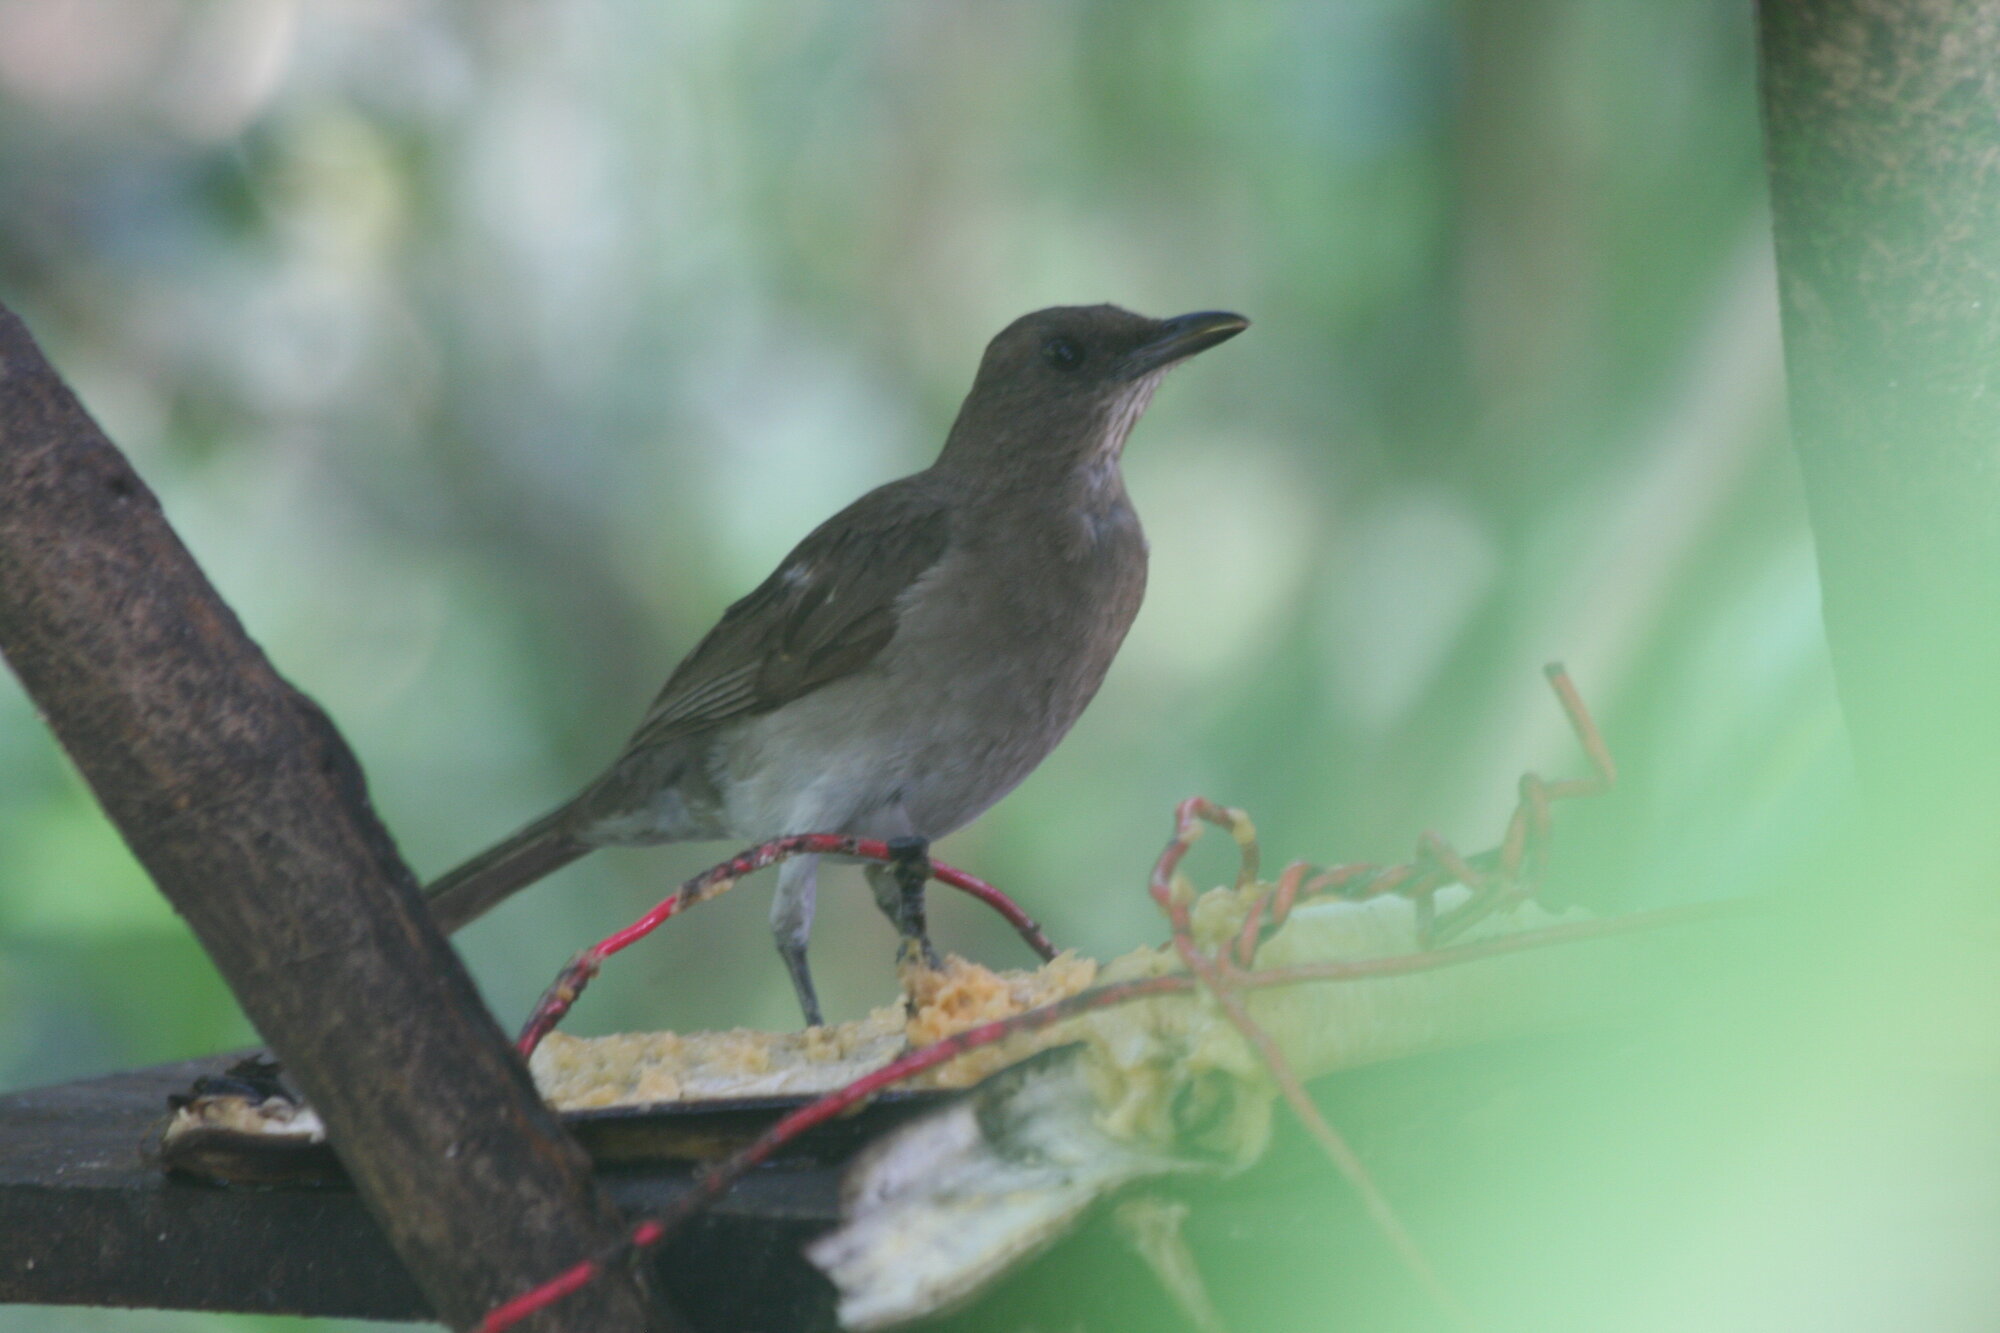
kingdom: Animalia
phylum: Chordata
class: Aves
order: Passeriformes
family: Turdidae
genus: Turdus
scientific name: Turdus ignobilis
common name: Black-billed thrush
